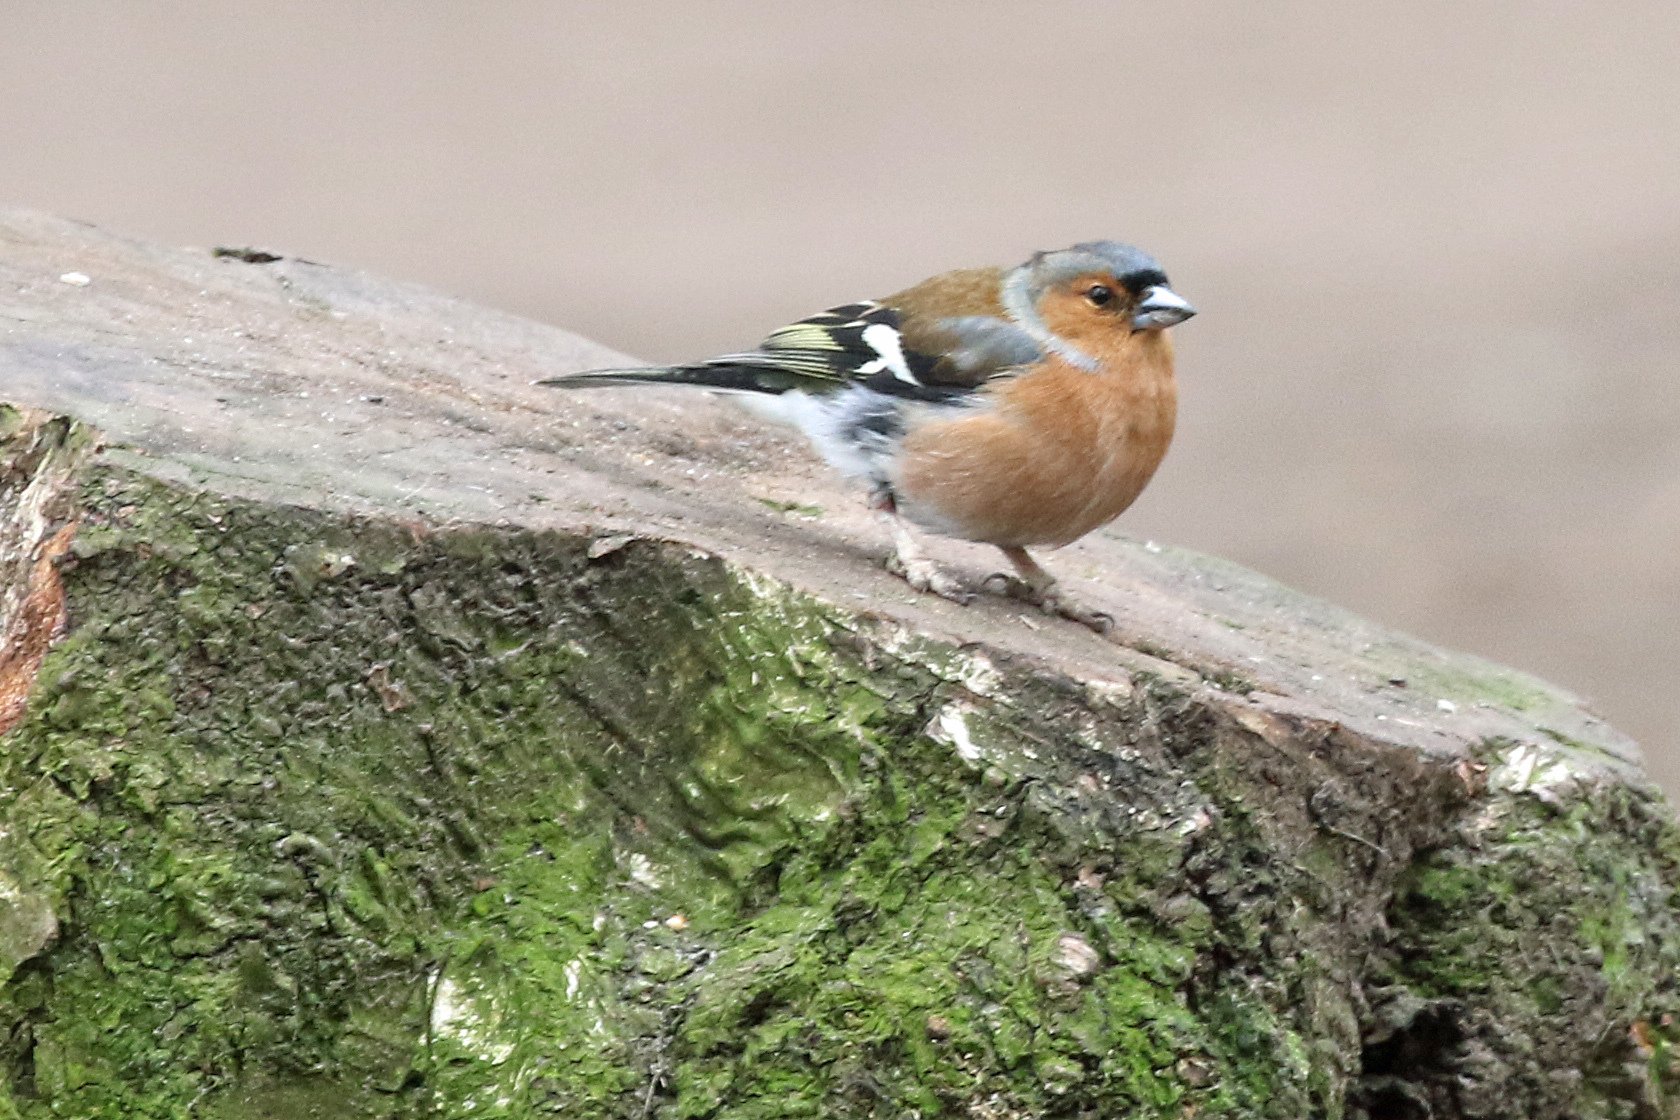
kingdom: Animalia
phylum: Chordata
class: Aves
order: Passeriformes
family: Fringillidae
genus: Fringilla
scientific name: Fringilla coelebs
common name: Common chaffinch
